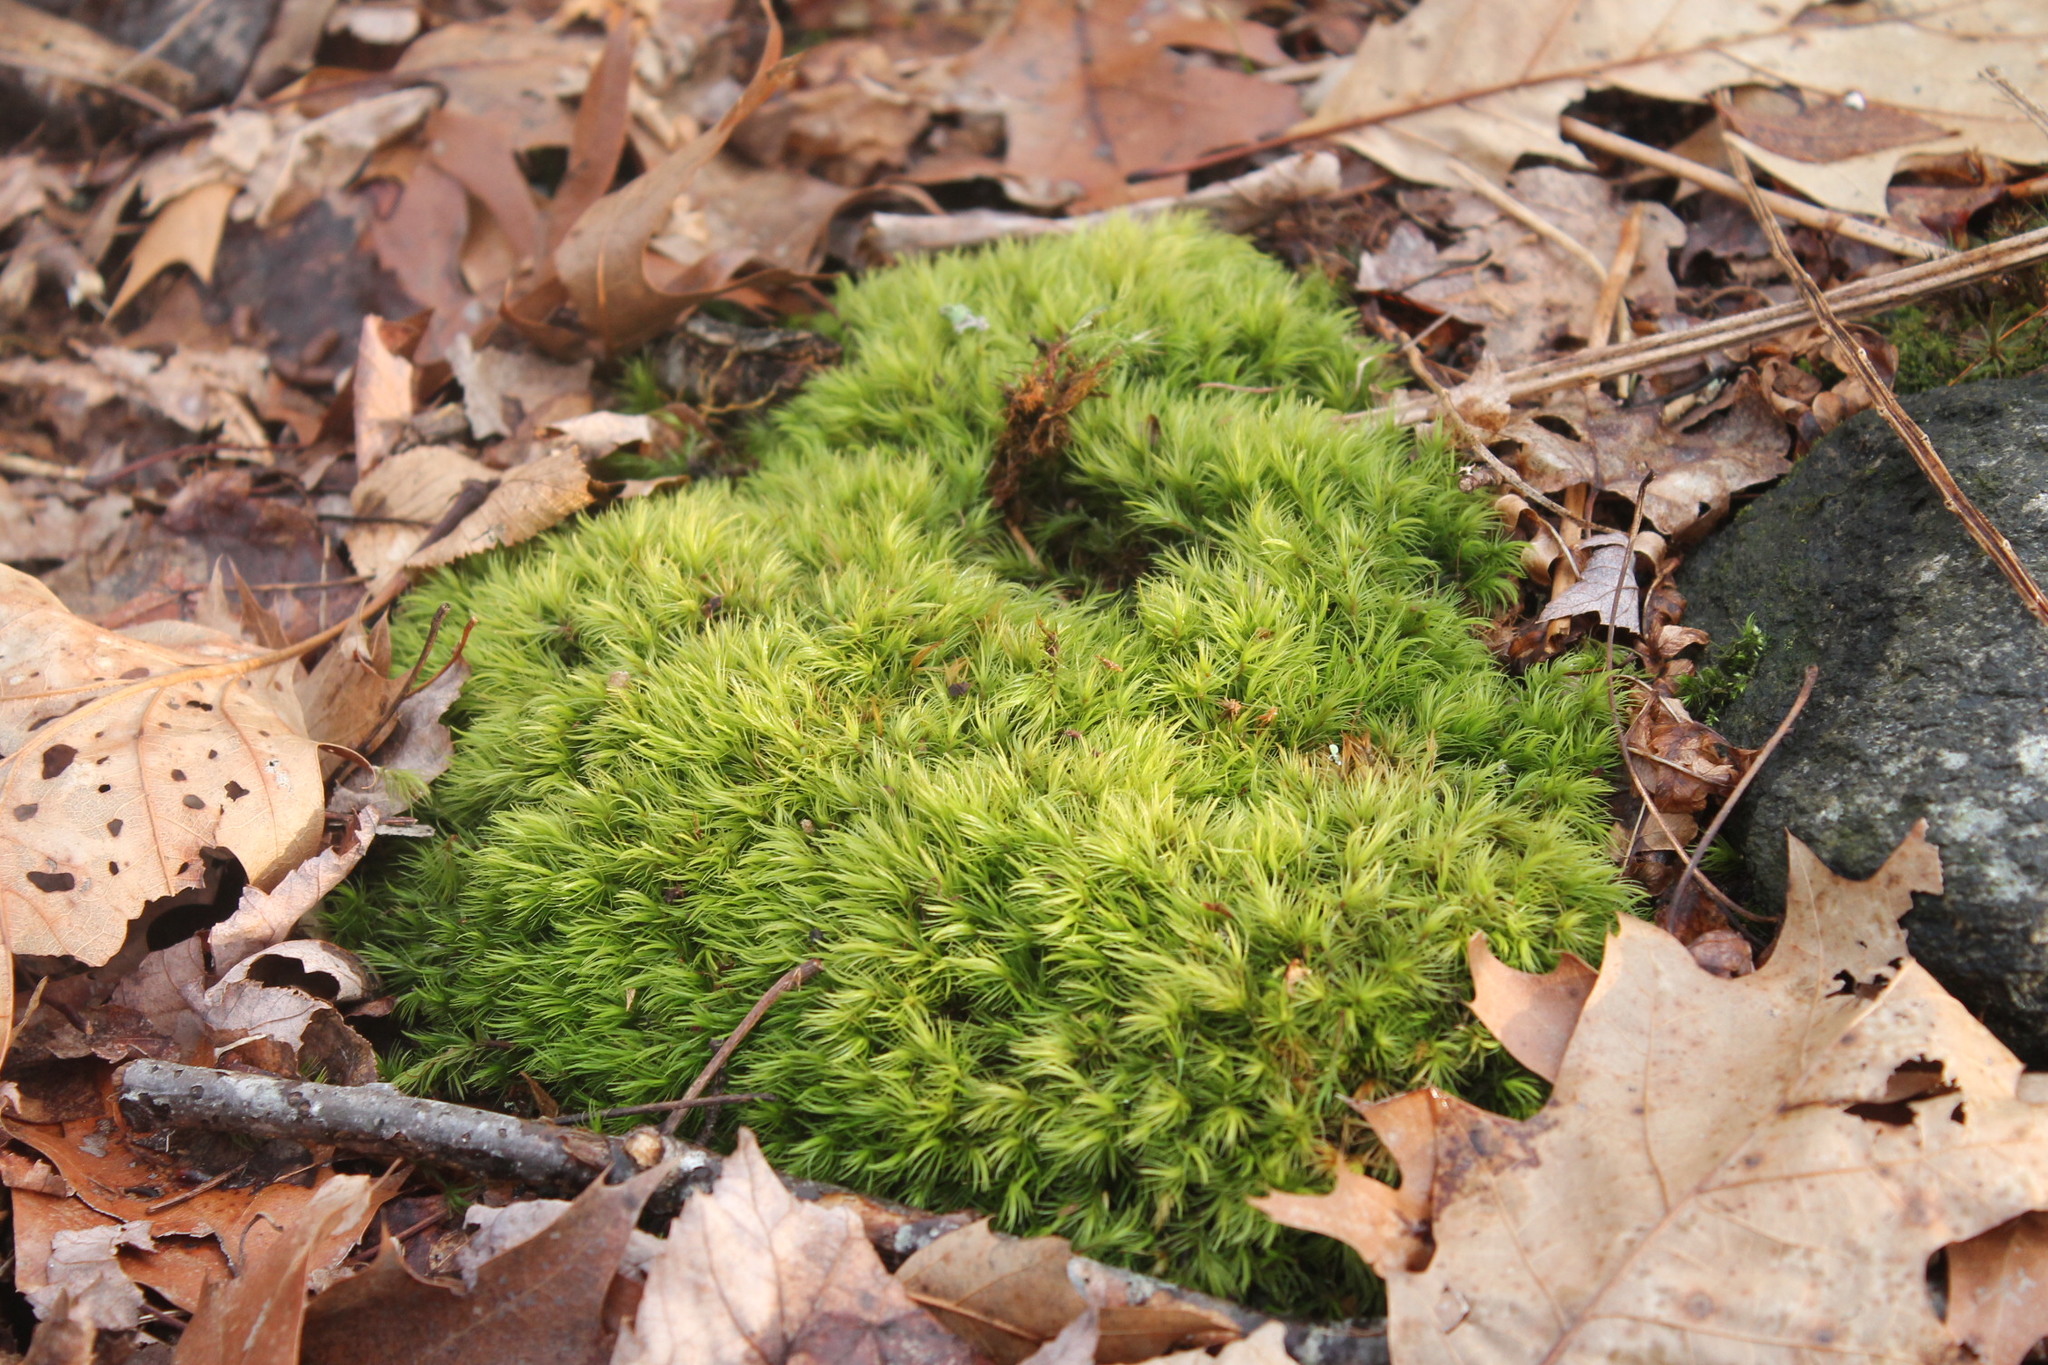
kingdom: Plantae
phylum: Bryophyta
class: Bryopsida
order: Dicranales
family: Dicranaceae
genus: Dicranum
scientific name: Dicranum scoparium
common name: Broom fork-moss
